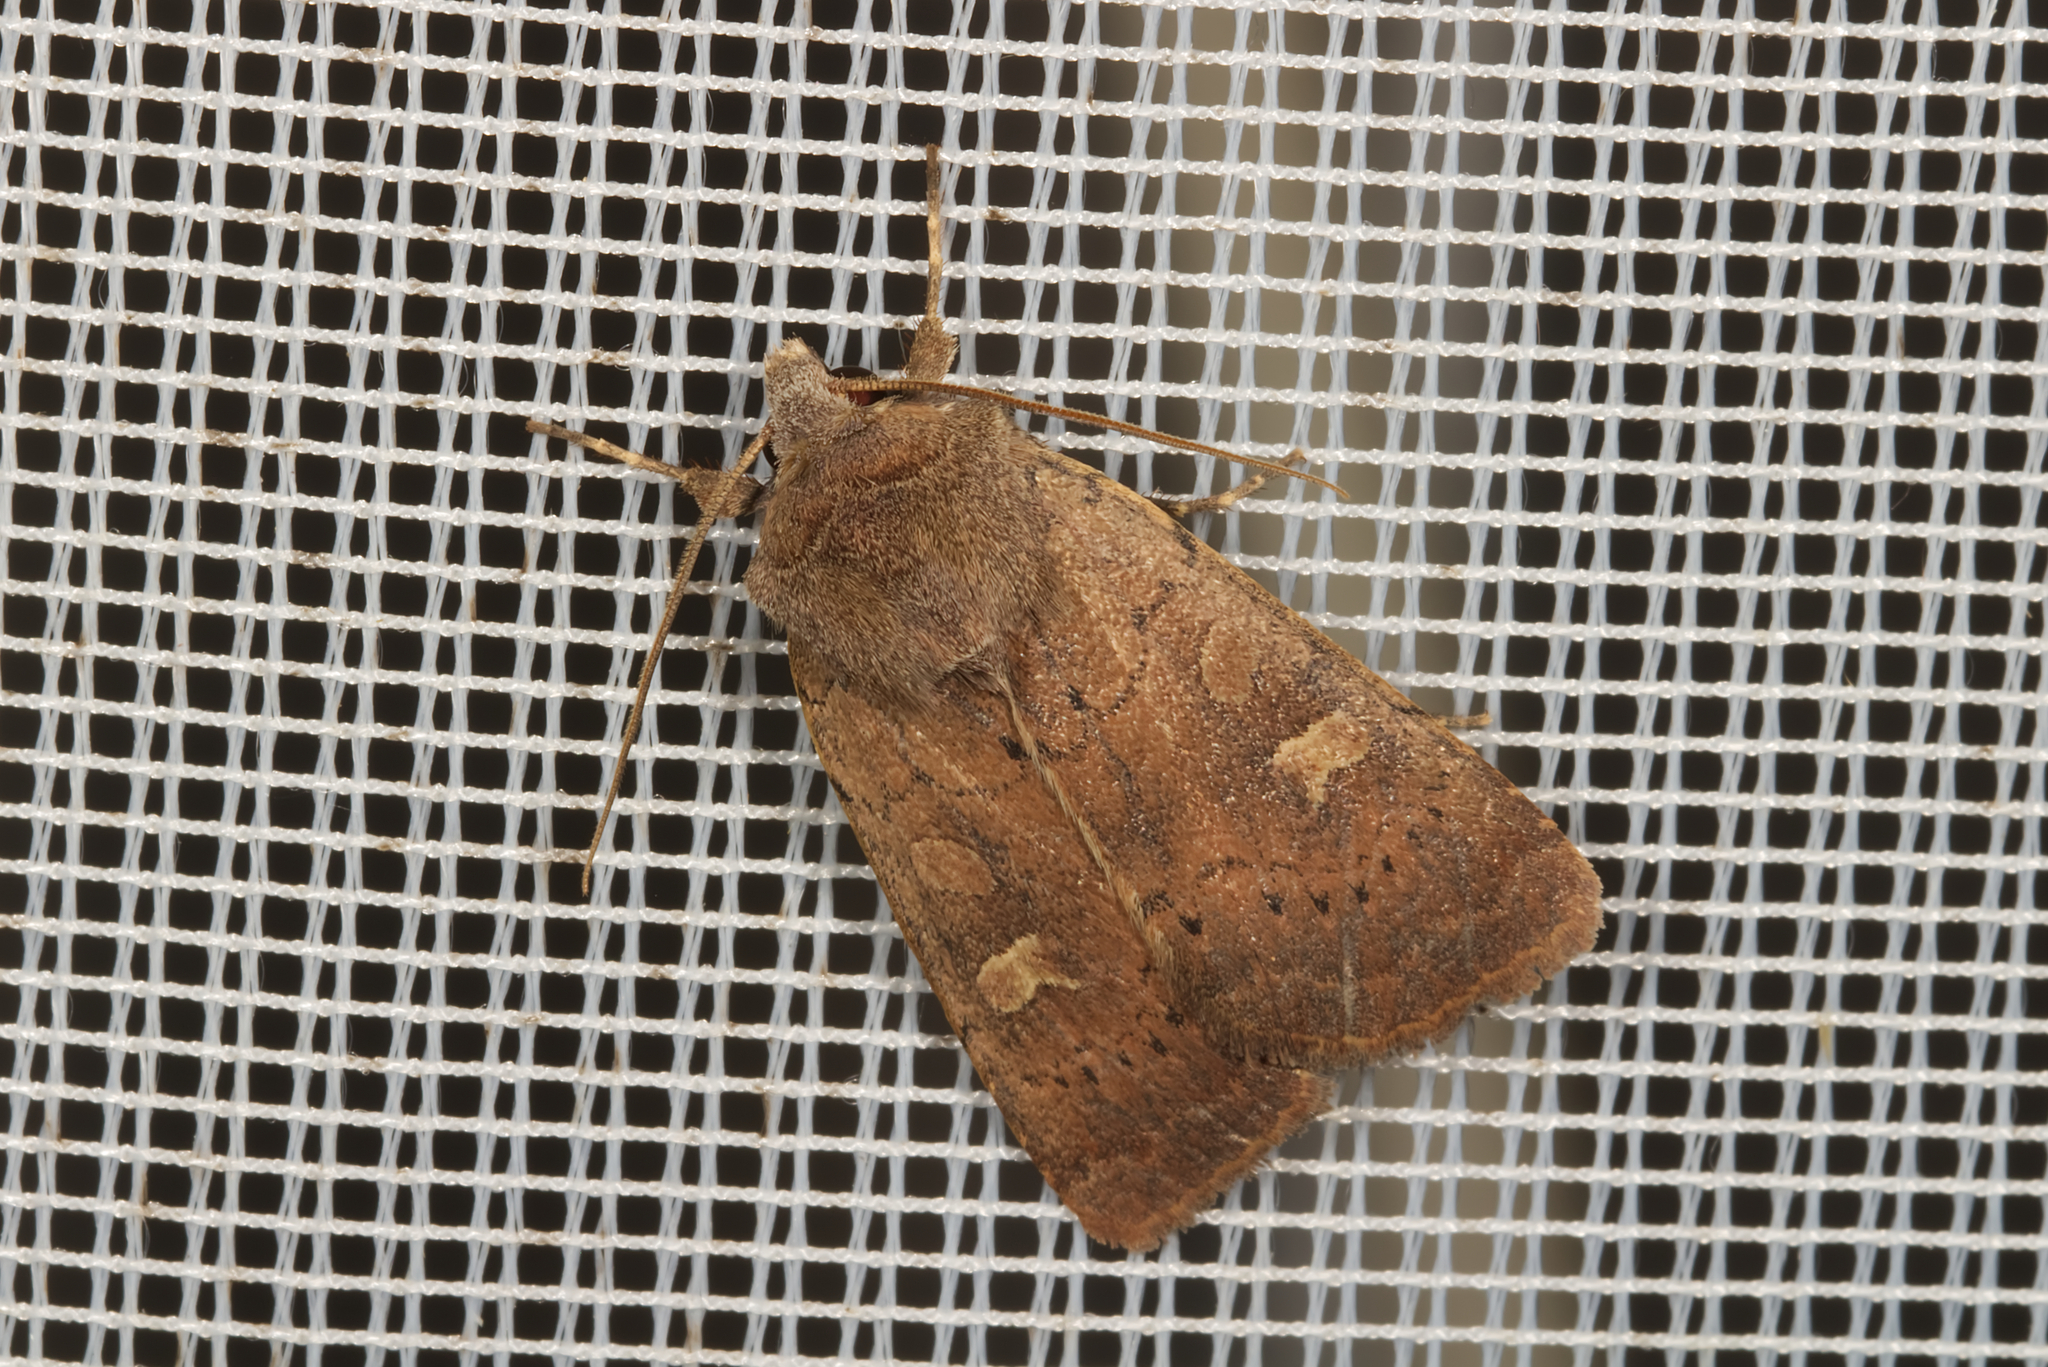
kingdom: Animalia
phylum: Arthropoda
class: Insecta
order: Lepidoptera
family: Noctuidae
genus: Xestia
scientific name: Xestia xanthographa
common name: Square-spot rustic
